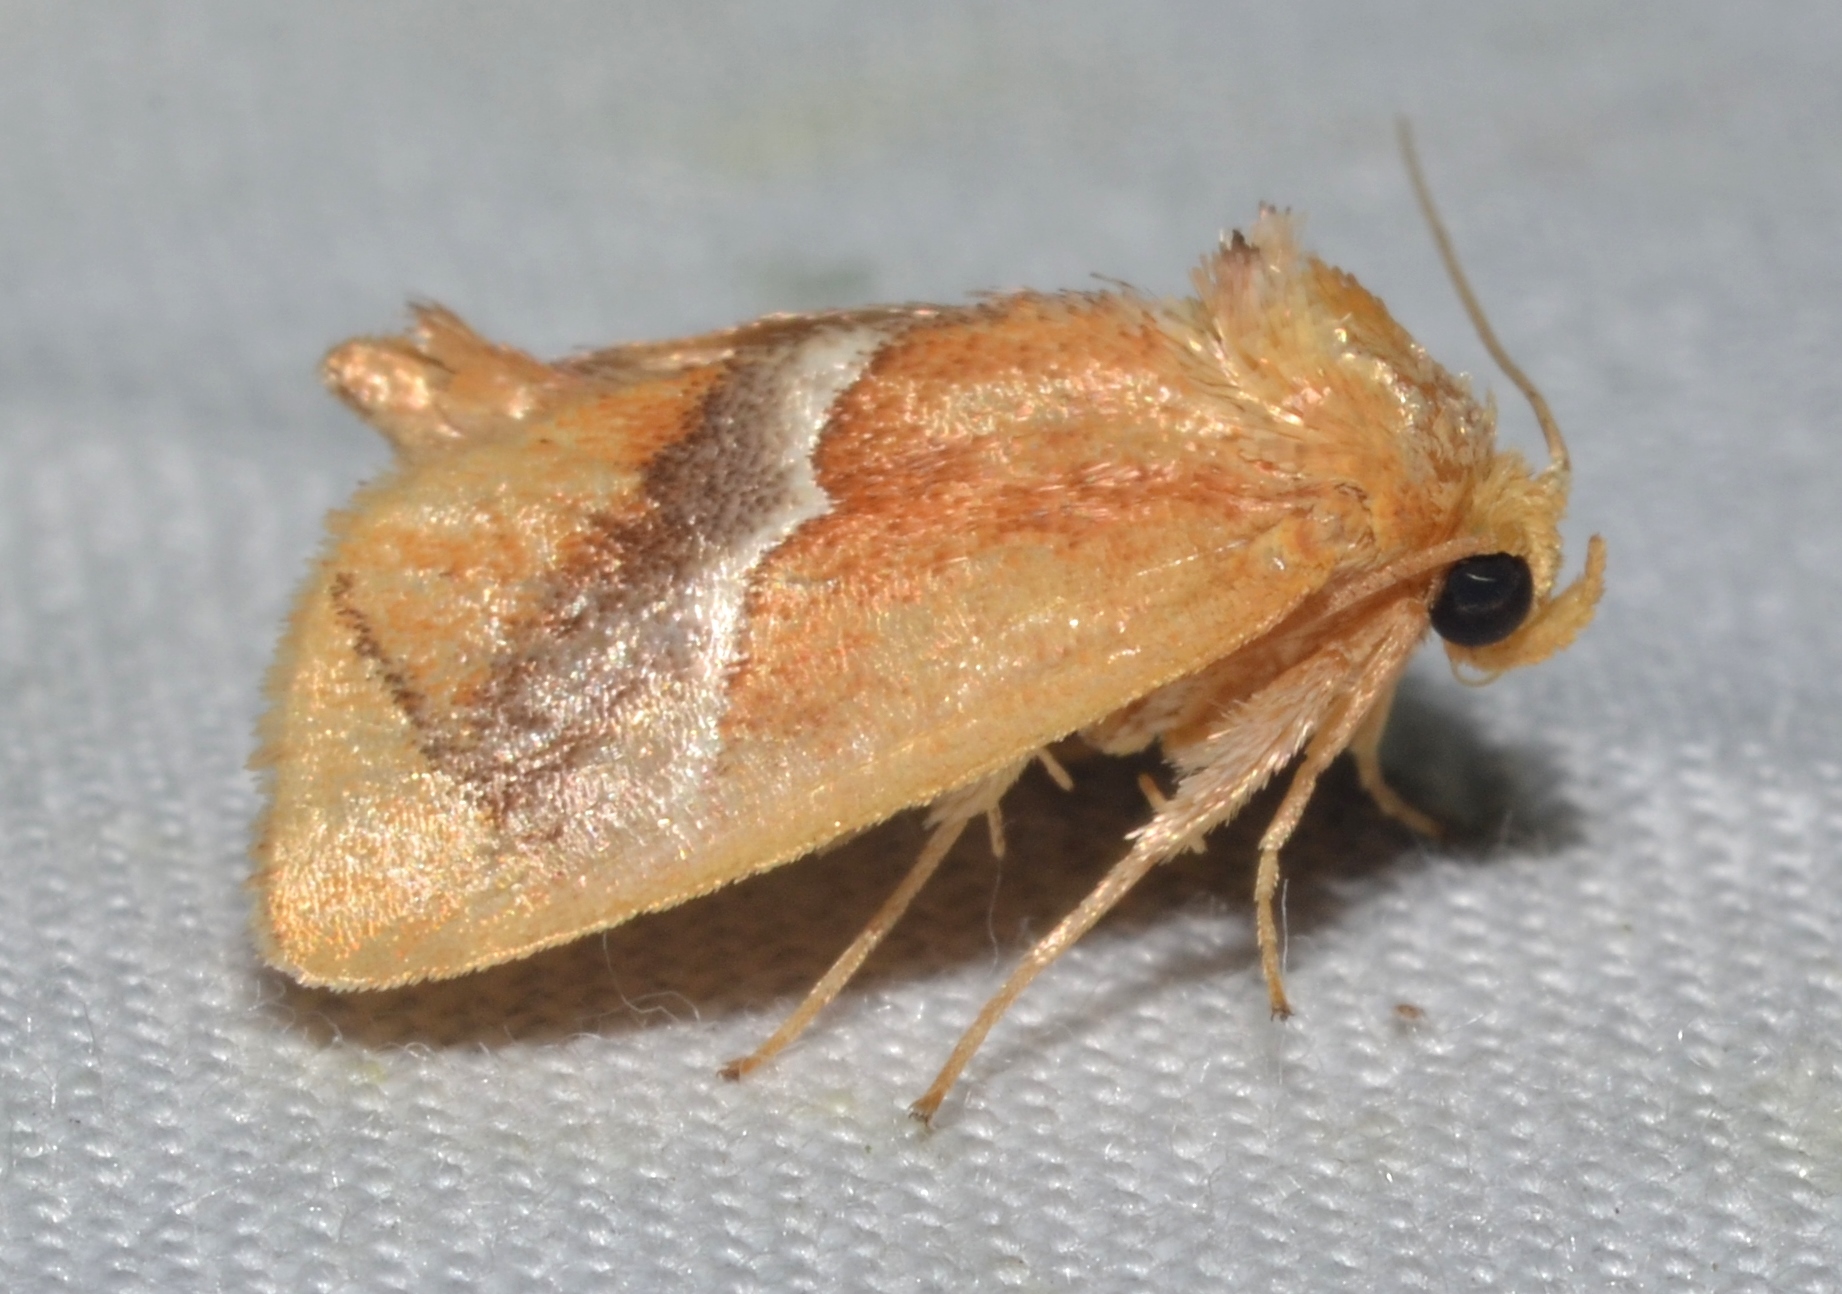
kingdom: Animalia
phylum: Arthropoda
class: Insecta
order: Lepidoptera
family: Limacodidae
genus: Lithacodes
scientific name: Lithacodes fasciola
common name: Yellow-shouldered slug moth
